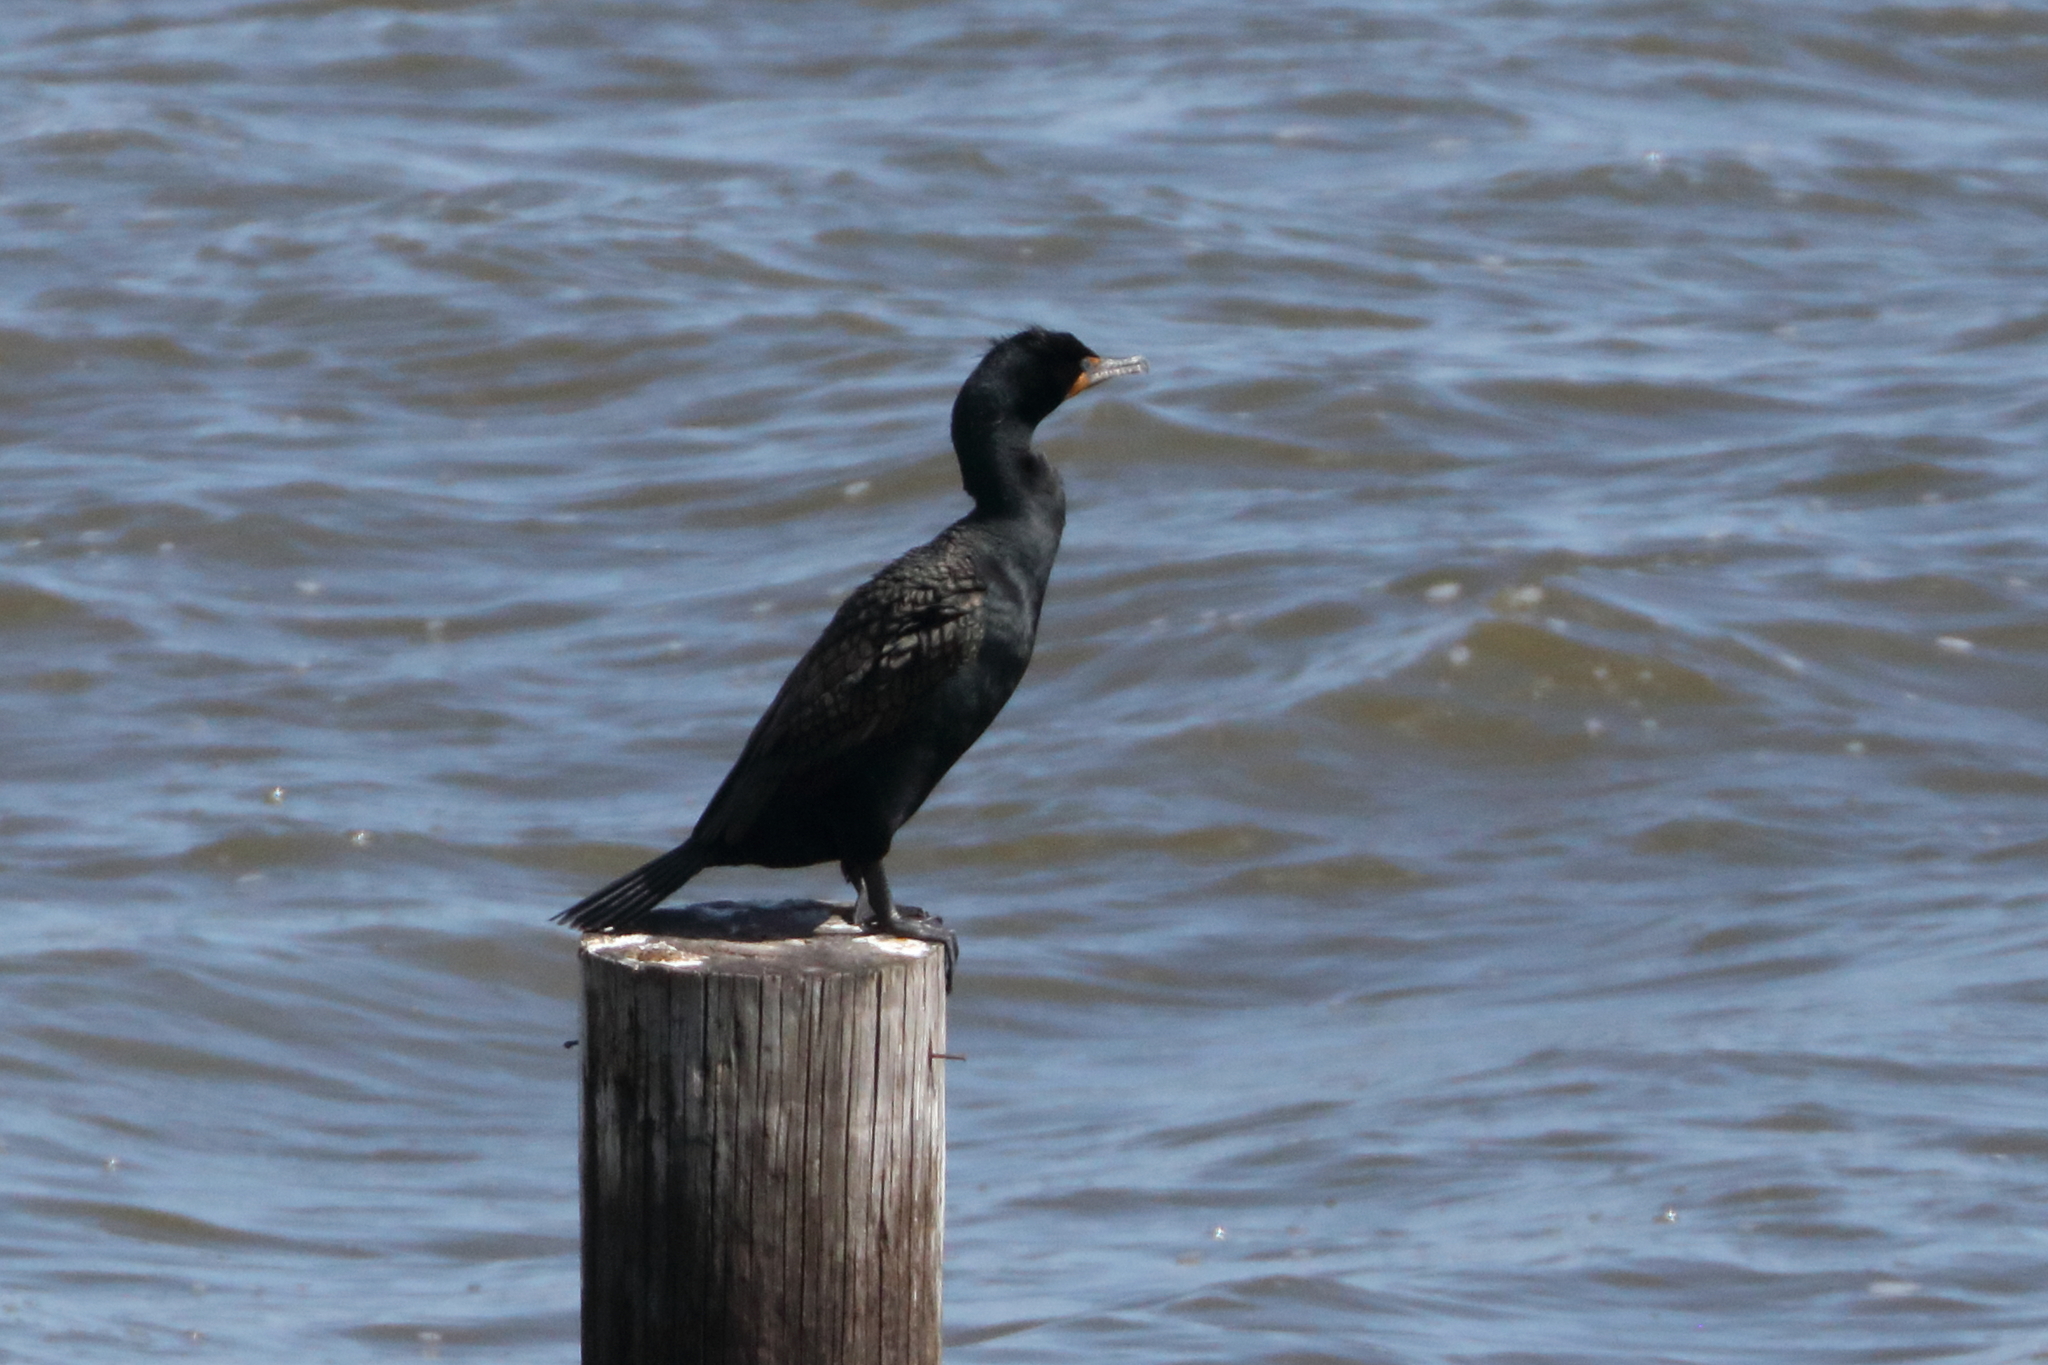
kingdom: Animalia
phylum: Chordata
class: Aves
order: Suliformes
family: Phalacrocoracidae
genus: Phalacrocorax
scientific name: Phalacrocorax auritus
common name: Double-crested cormorant
